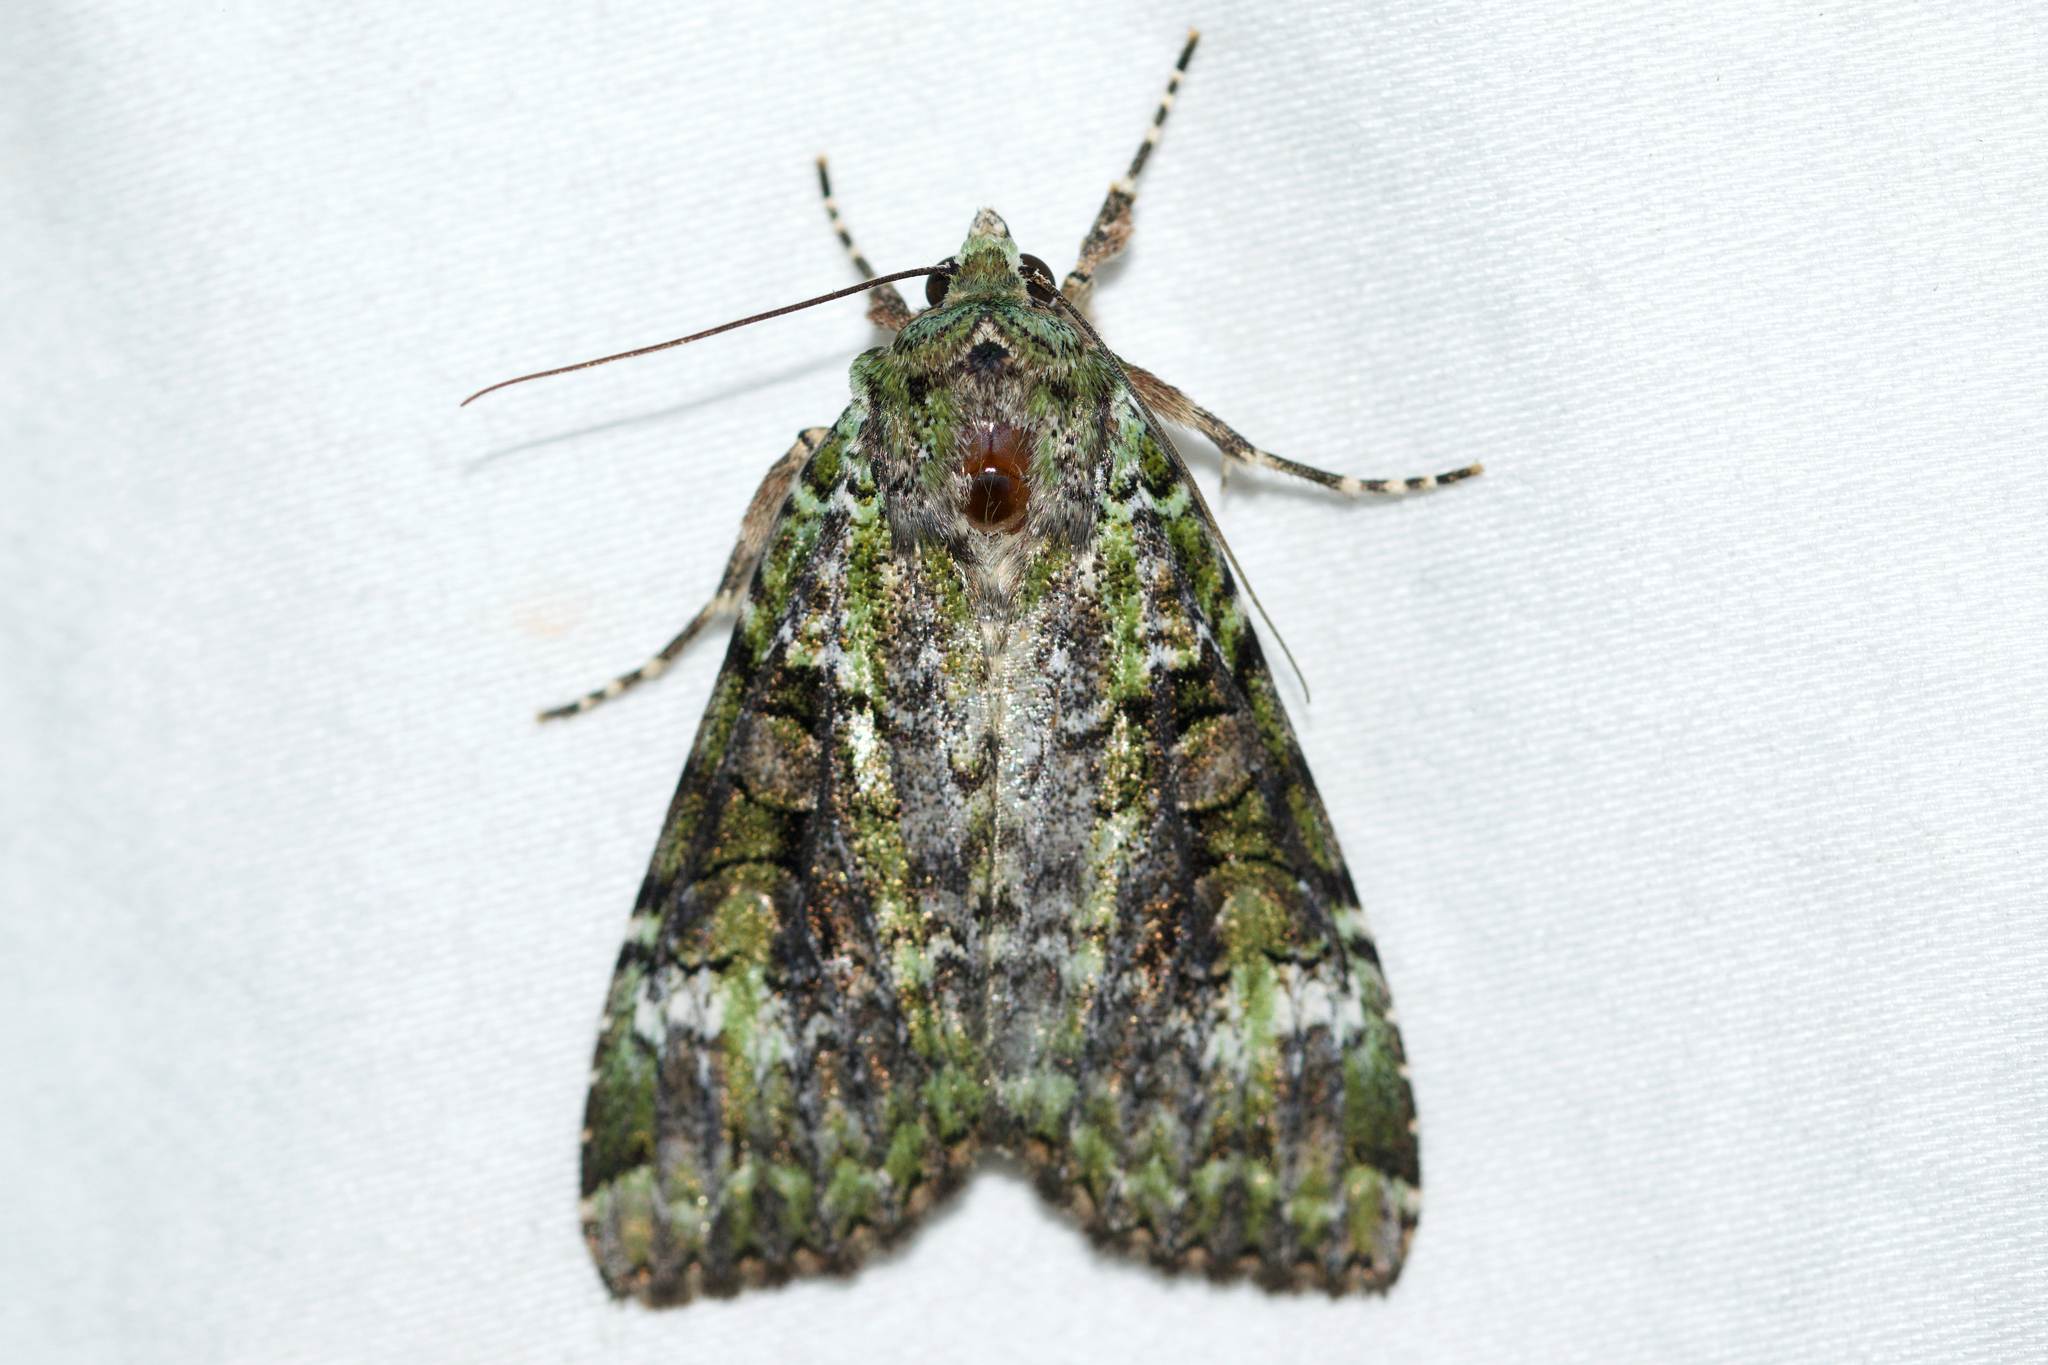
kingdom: Animalia
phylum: Arthropoda
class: Insecta
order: Lepidoptera
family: Noctuidae
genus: Anaplectoides
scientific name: Anaplectoides prasina
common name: Green arches
